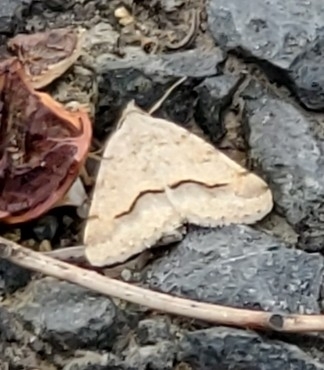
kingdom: Animalia
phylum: Arthropoda
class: Insecta
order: Lepidoptera
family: Geometridae
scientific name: Geometridae
